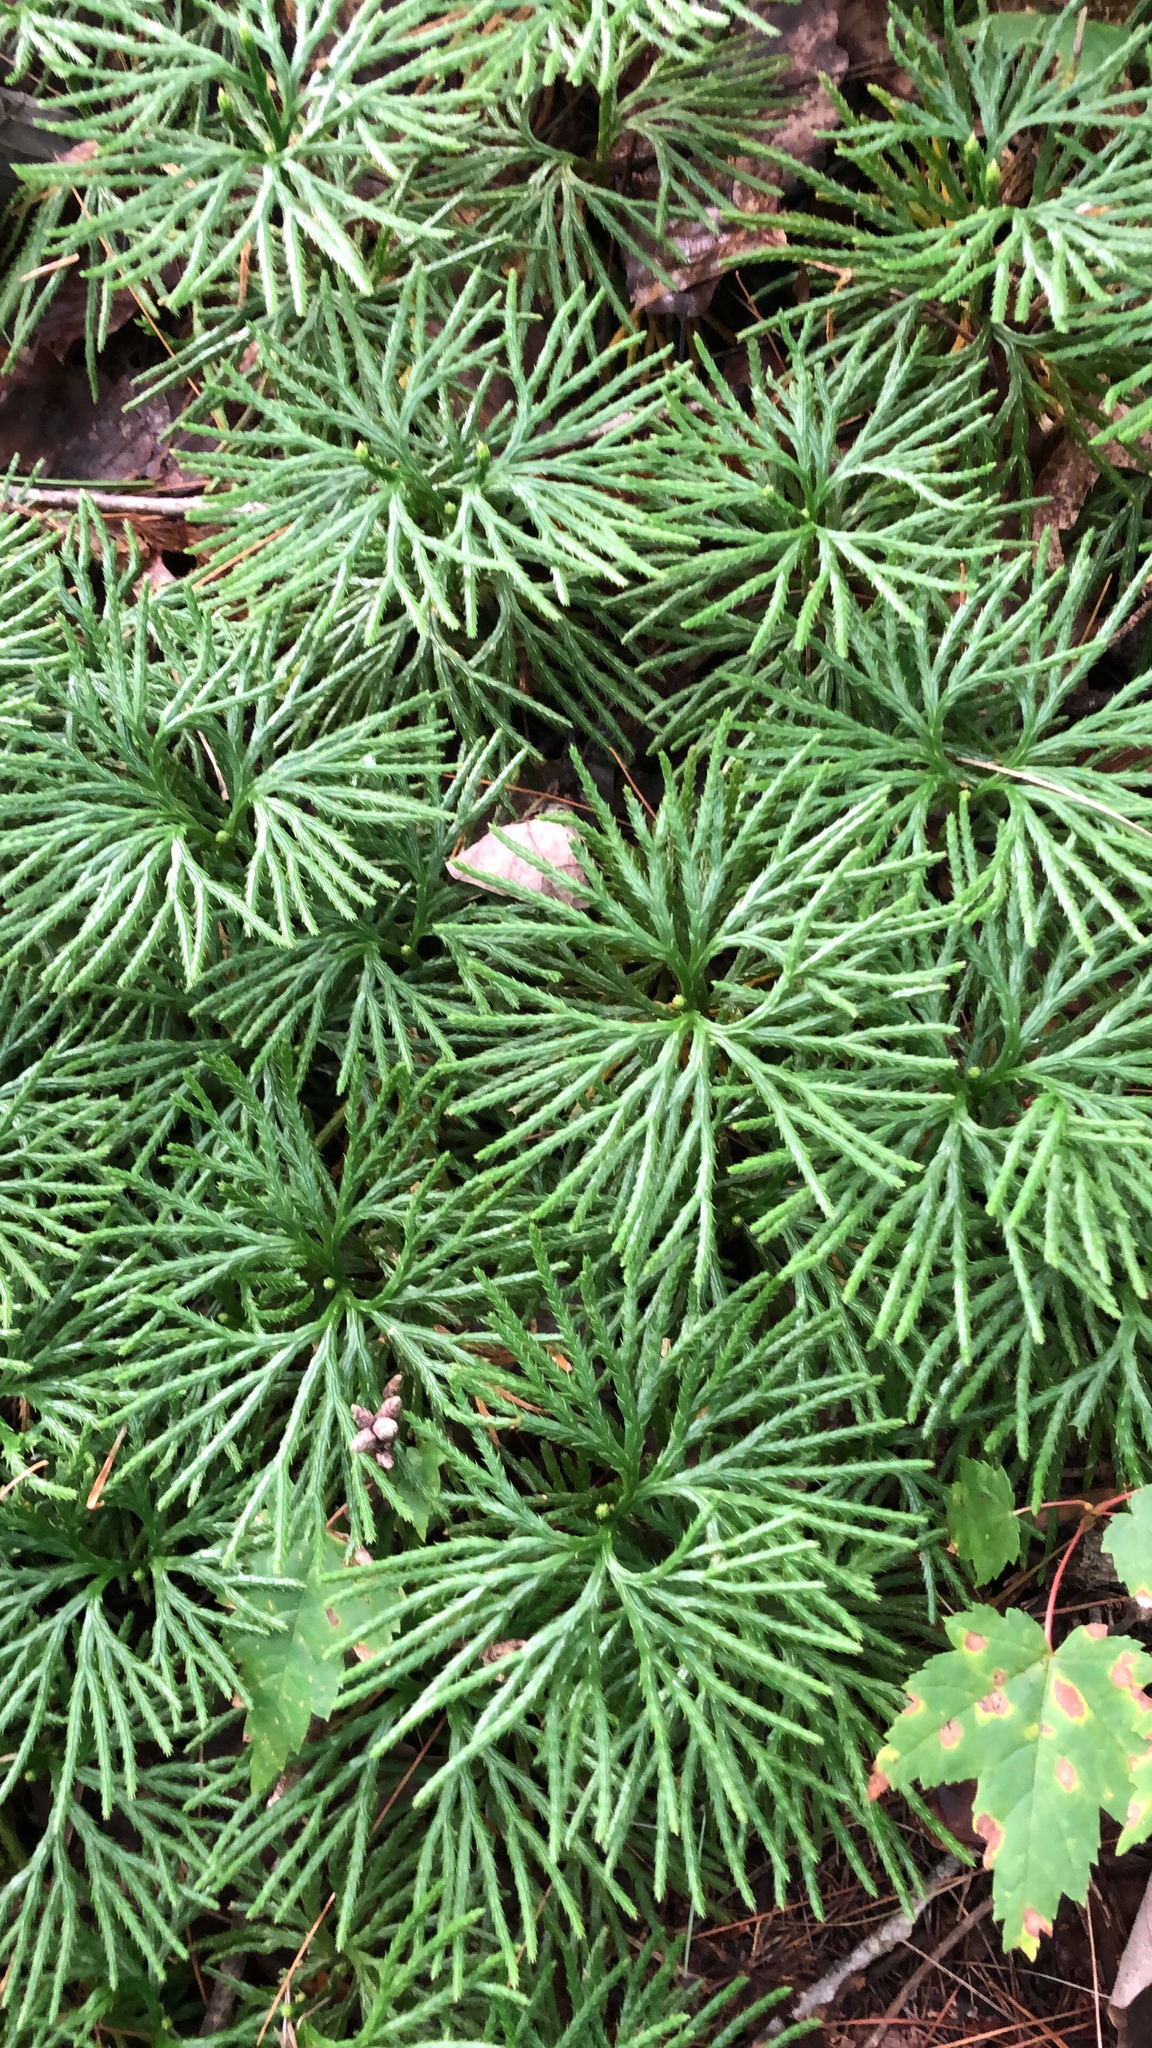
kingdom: Plantae
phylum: Tracheophyta
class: Lycopodiopsida
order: Lycopodiales
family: Lycopodiaceae
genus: Diphasiastrum
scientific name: Diphasiastrum digitatum
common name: Southern running-pine
